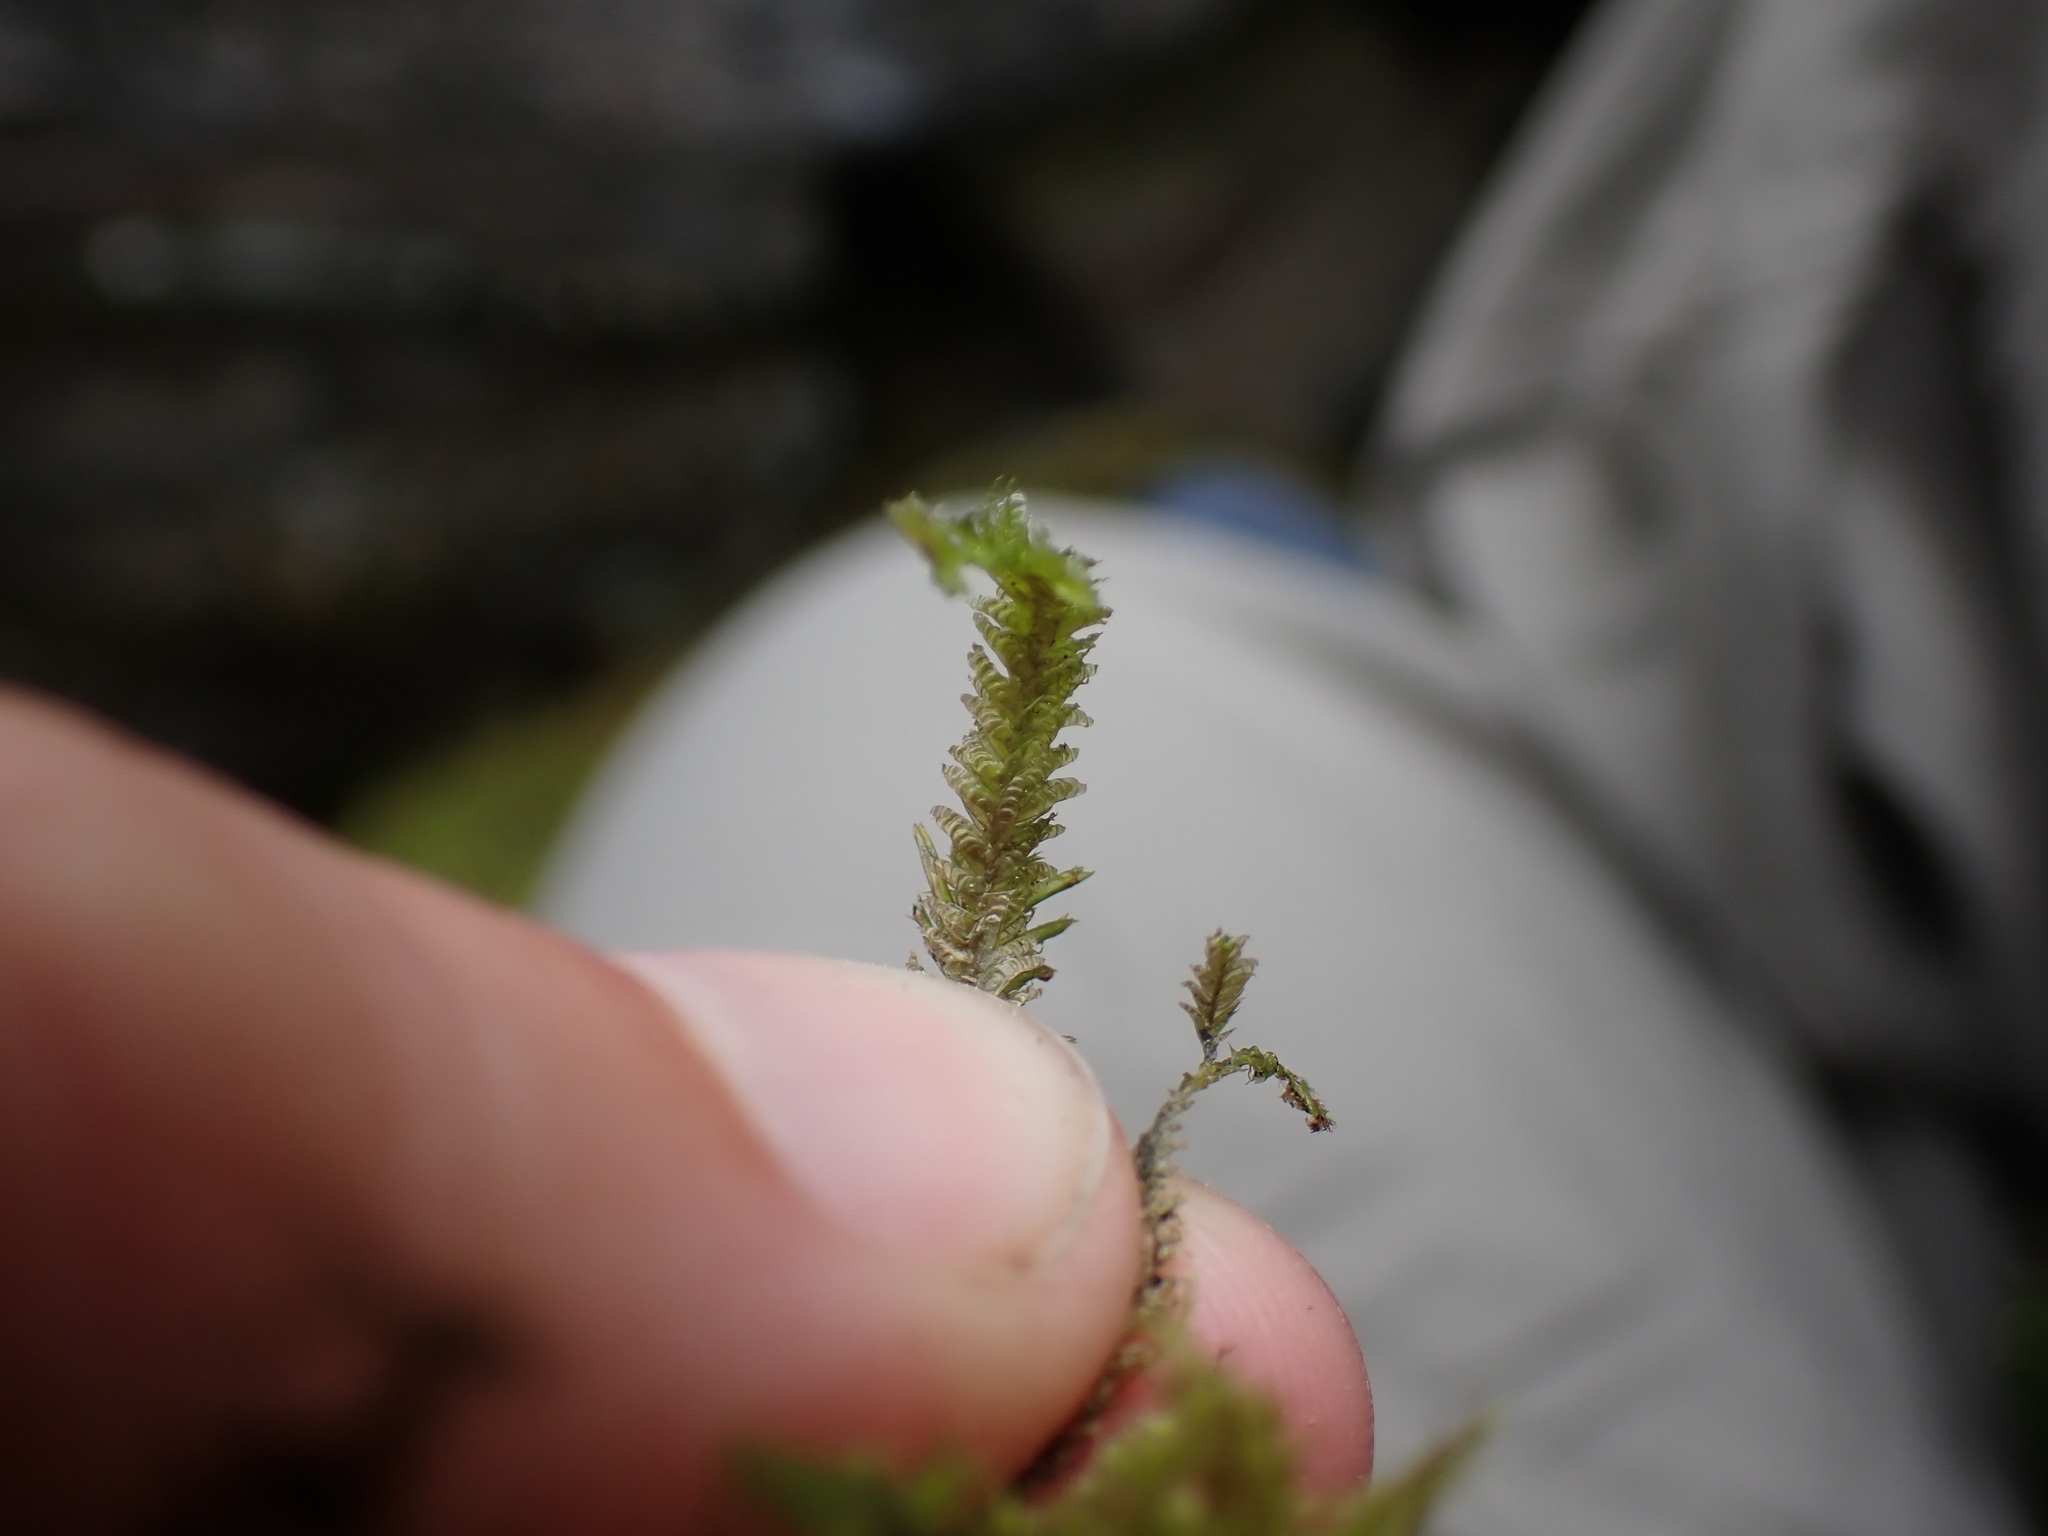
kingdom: Plantae
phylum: Bryophyta
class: Bryopsida
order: Hypnales
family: Neckeraceae
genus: Neckera
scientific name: Neckera pennata
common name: Feathery neckera
